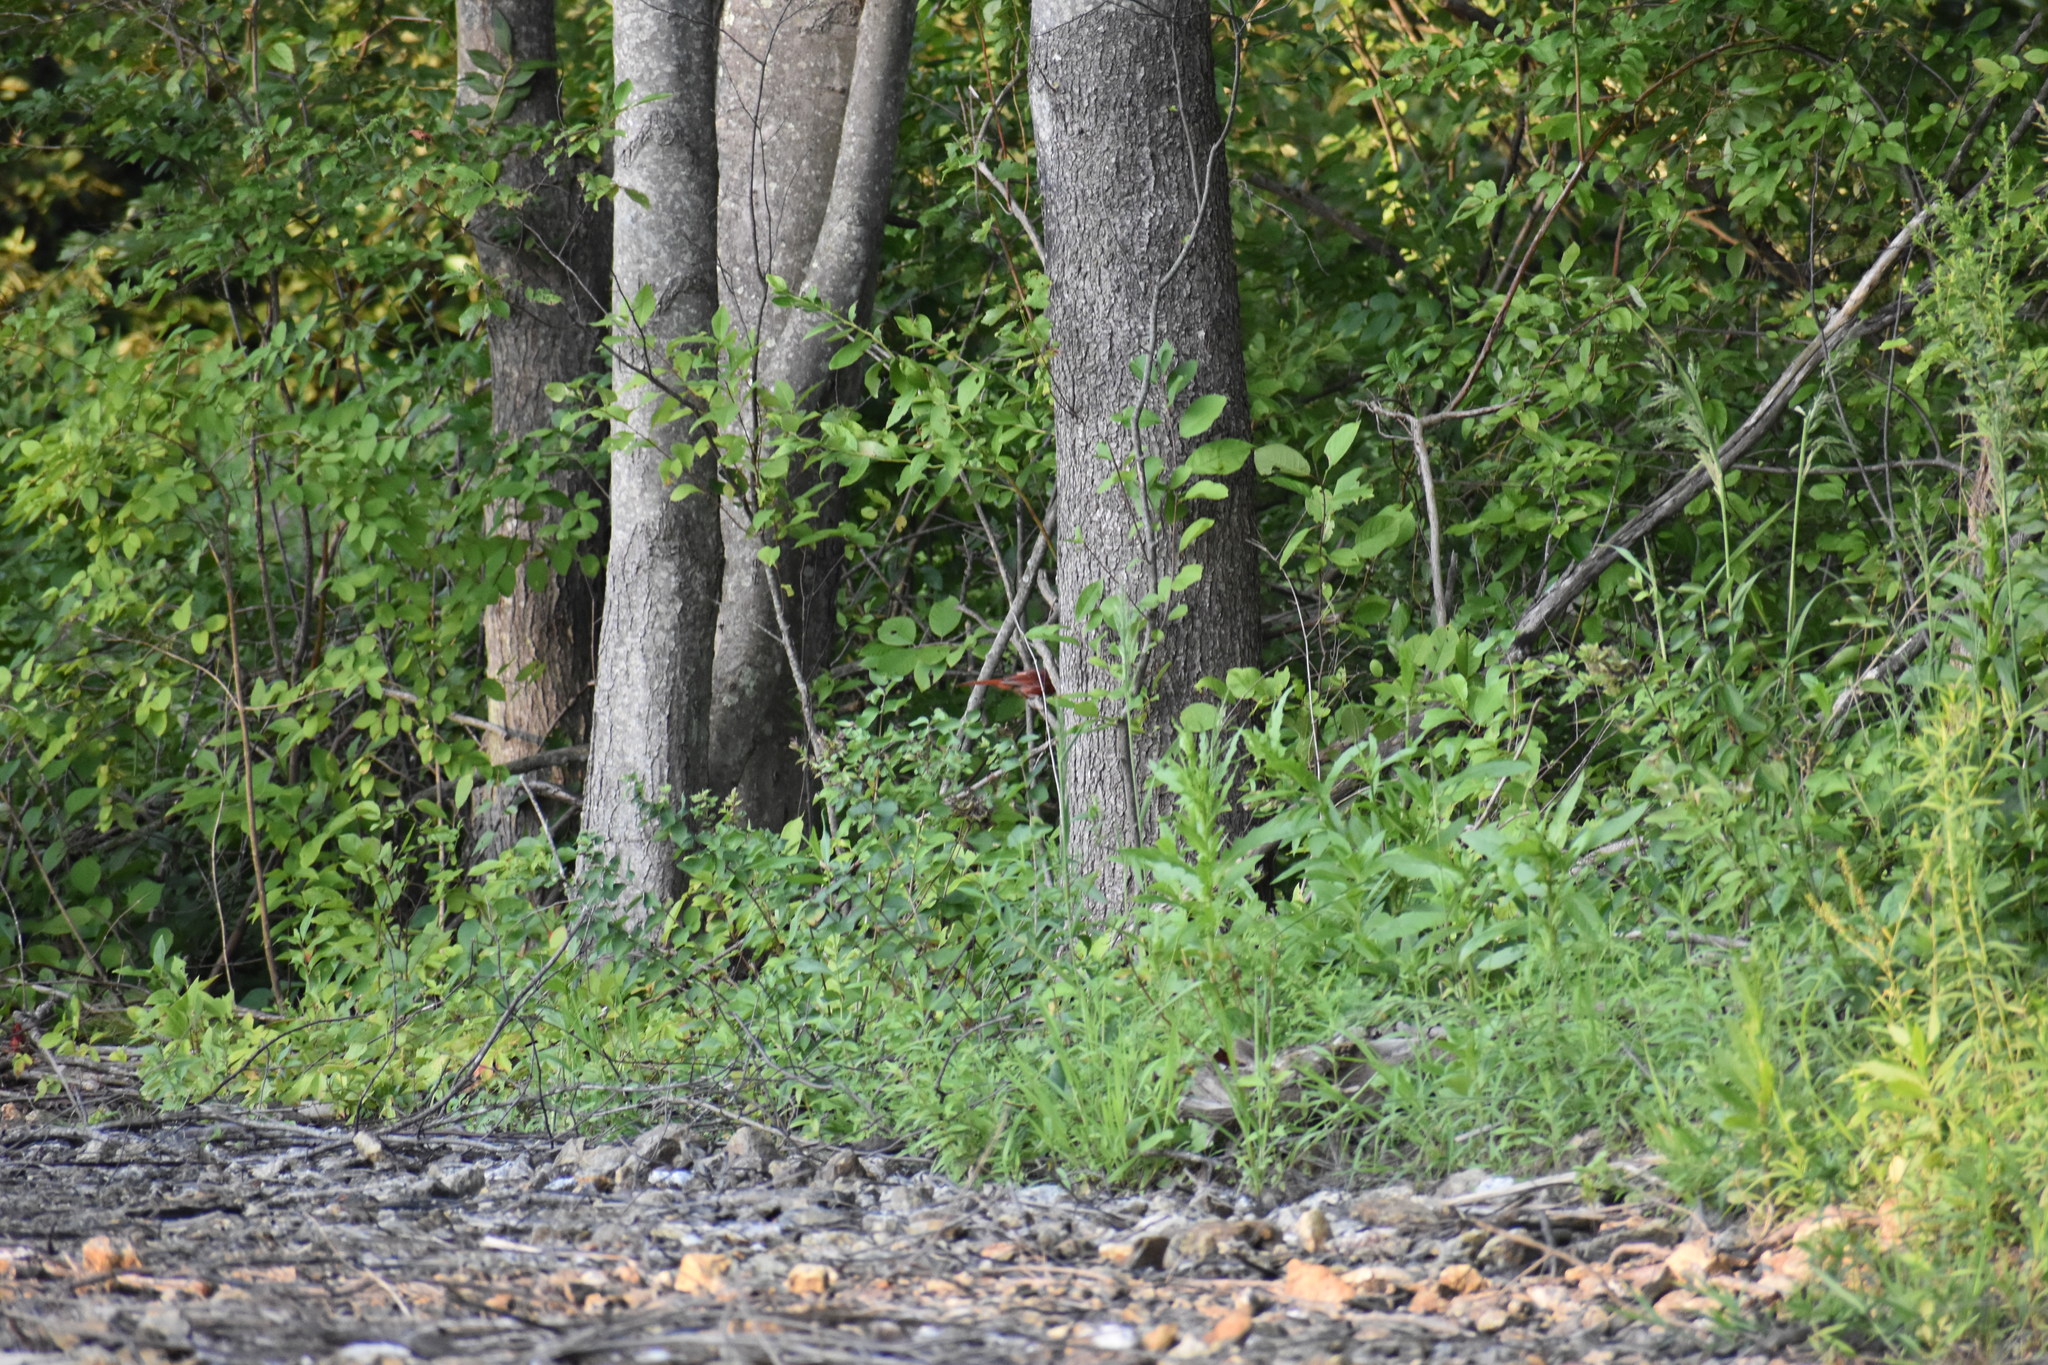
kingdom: Animalia
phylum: Chordata
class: Aves
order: Passeriformes
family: Cardinalidae
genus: Cardinalis
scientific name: Cardinalis cardinalis
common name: Northern cardinal
